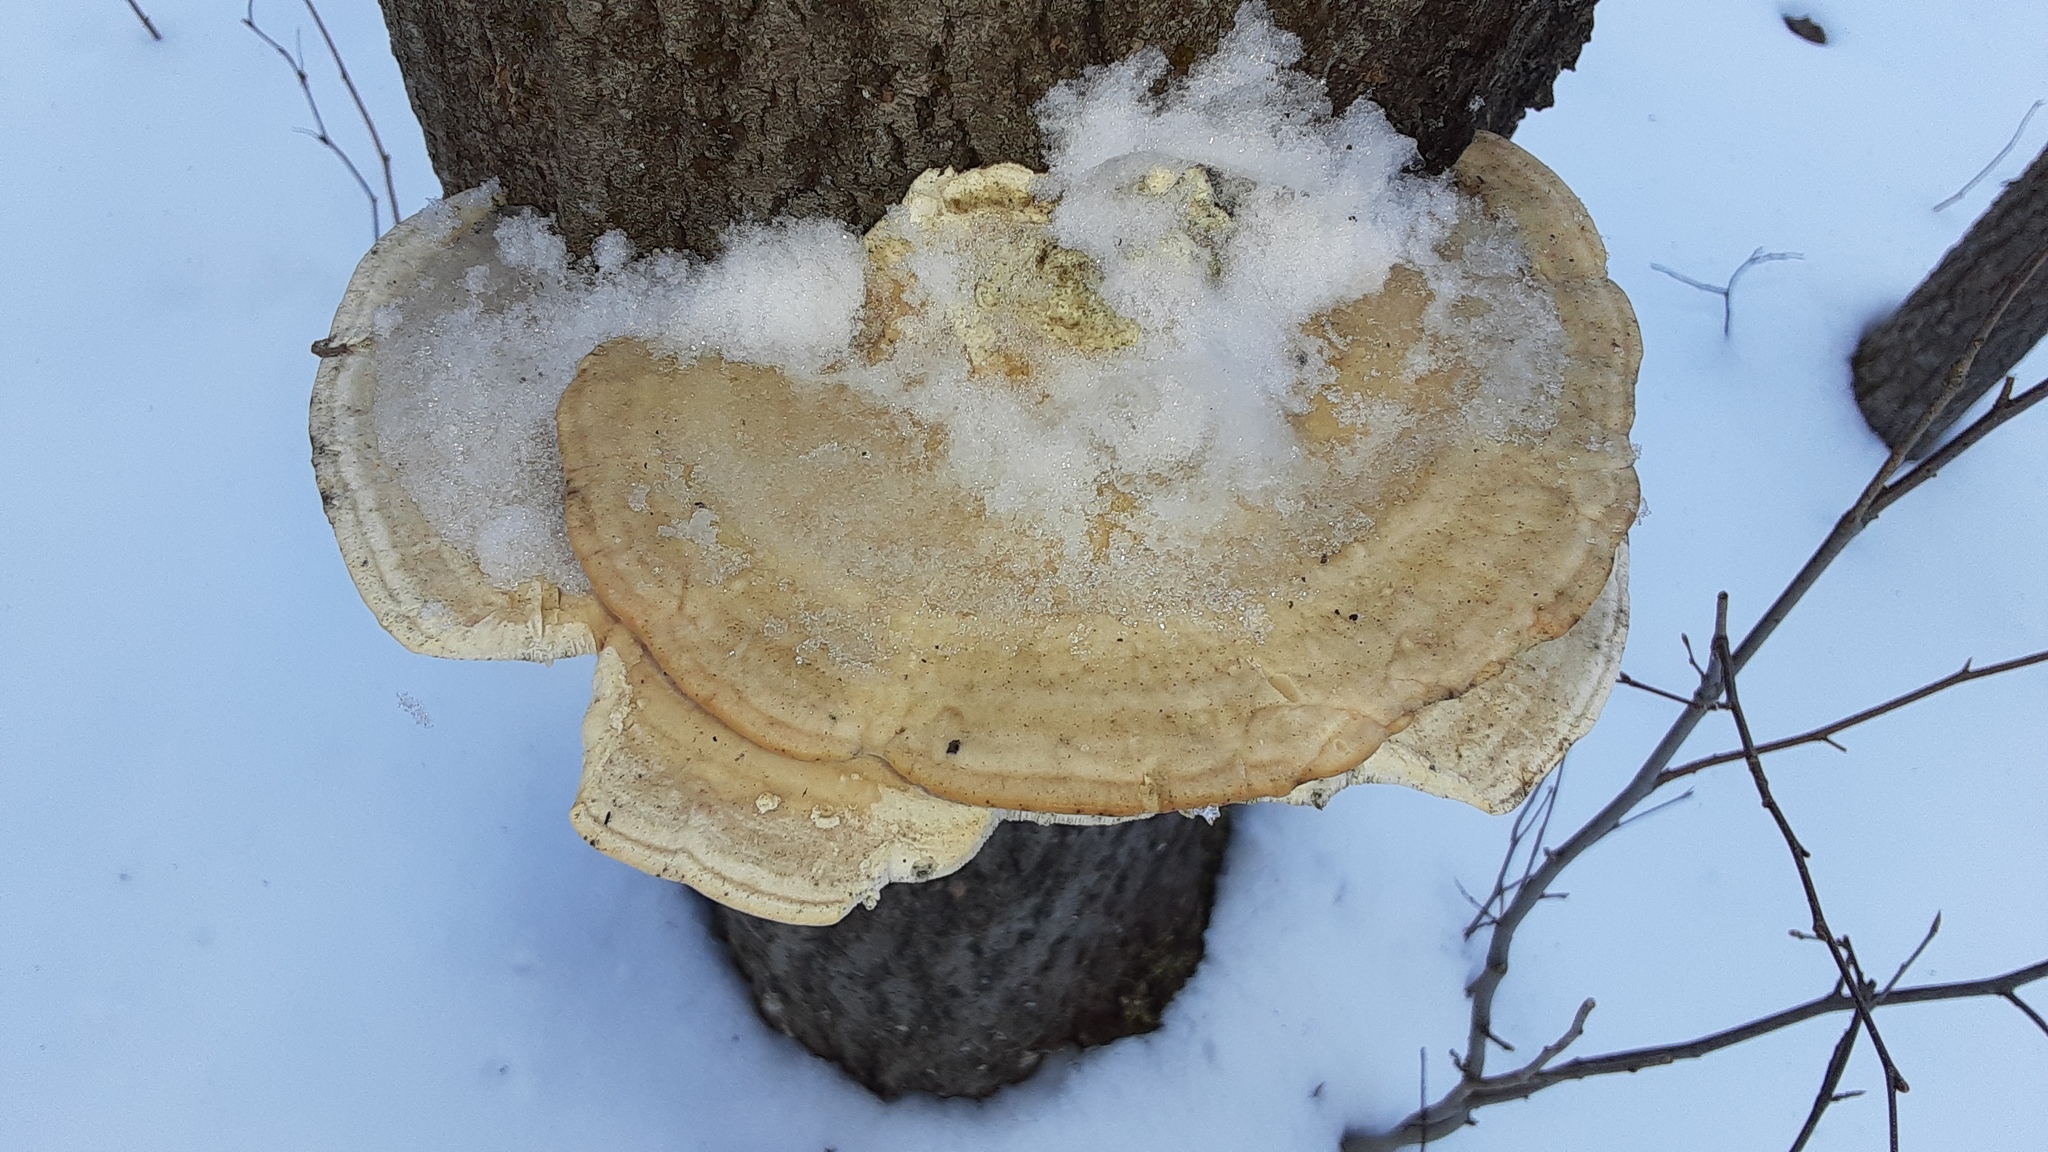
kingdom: Fungi
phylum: Basidiomycota
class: Agaricomycetes
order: Polyporales
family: Polyporaceae
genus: Trametes
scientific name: Trametes gibbosa
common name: Lumpy bracket
